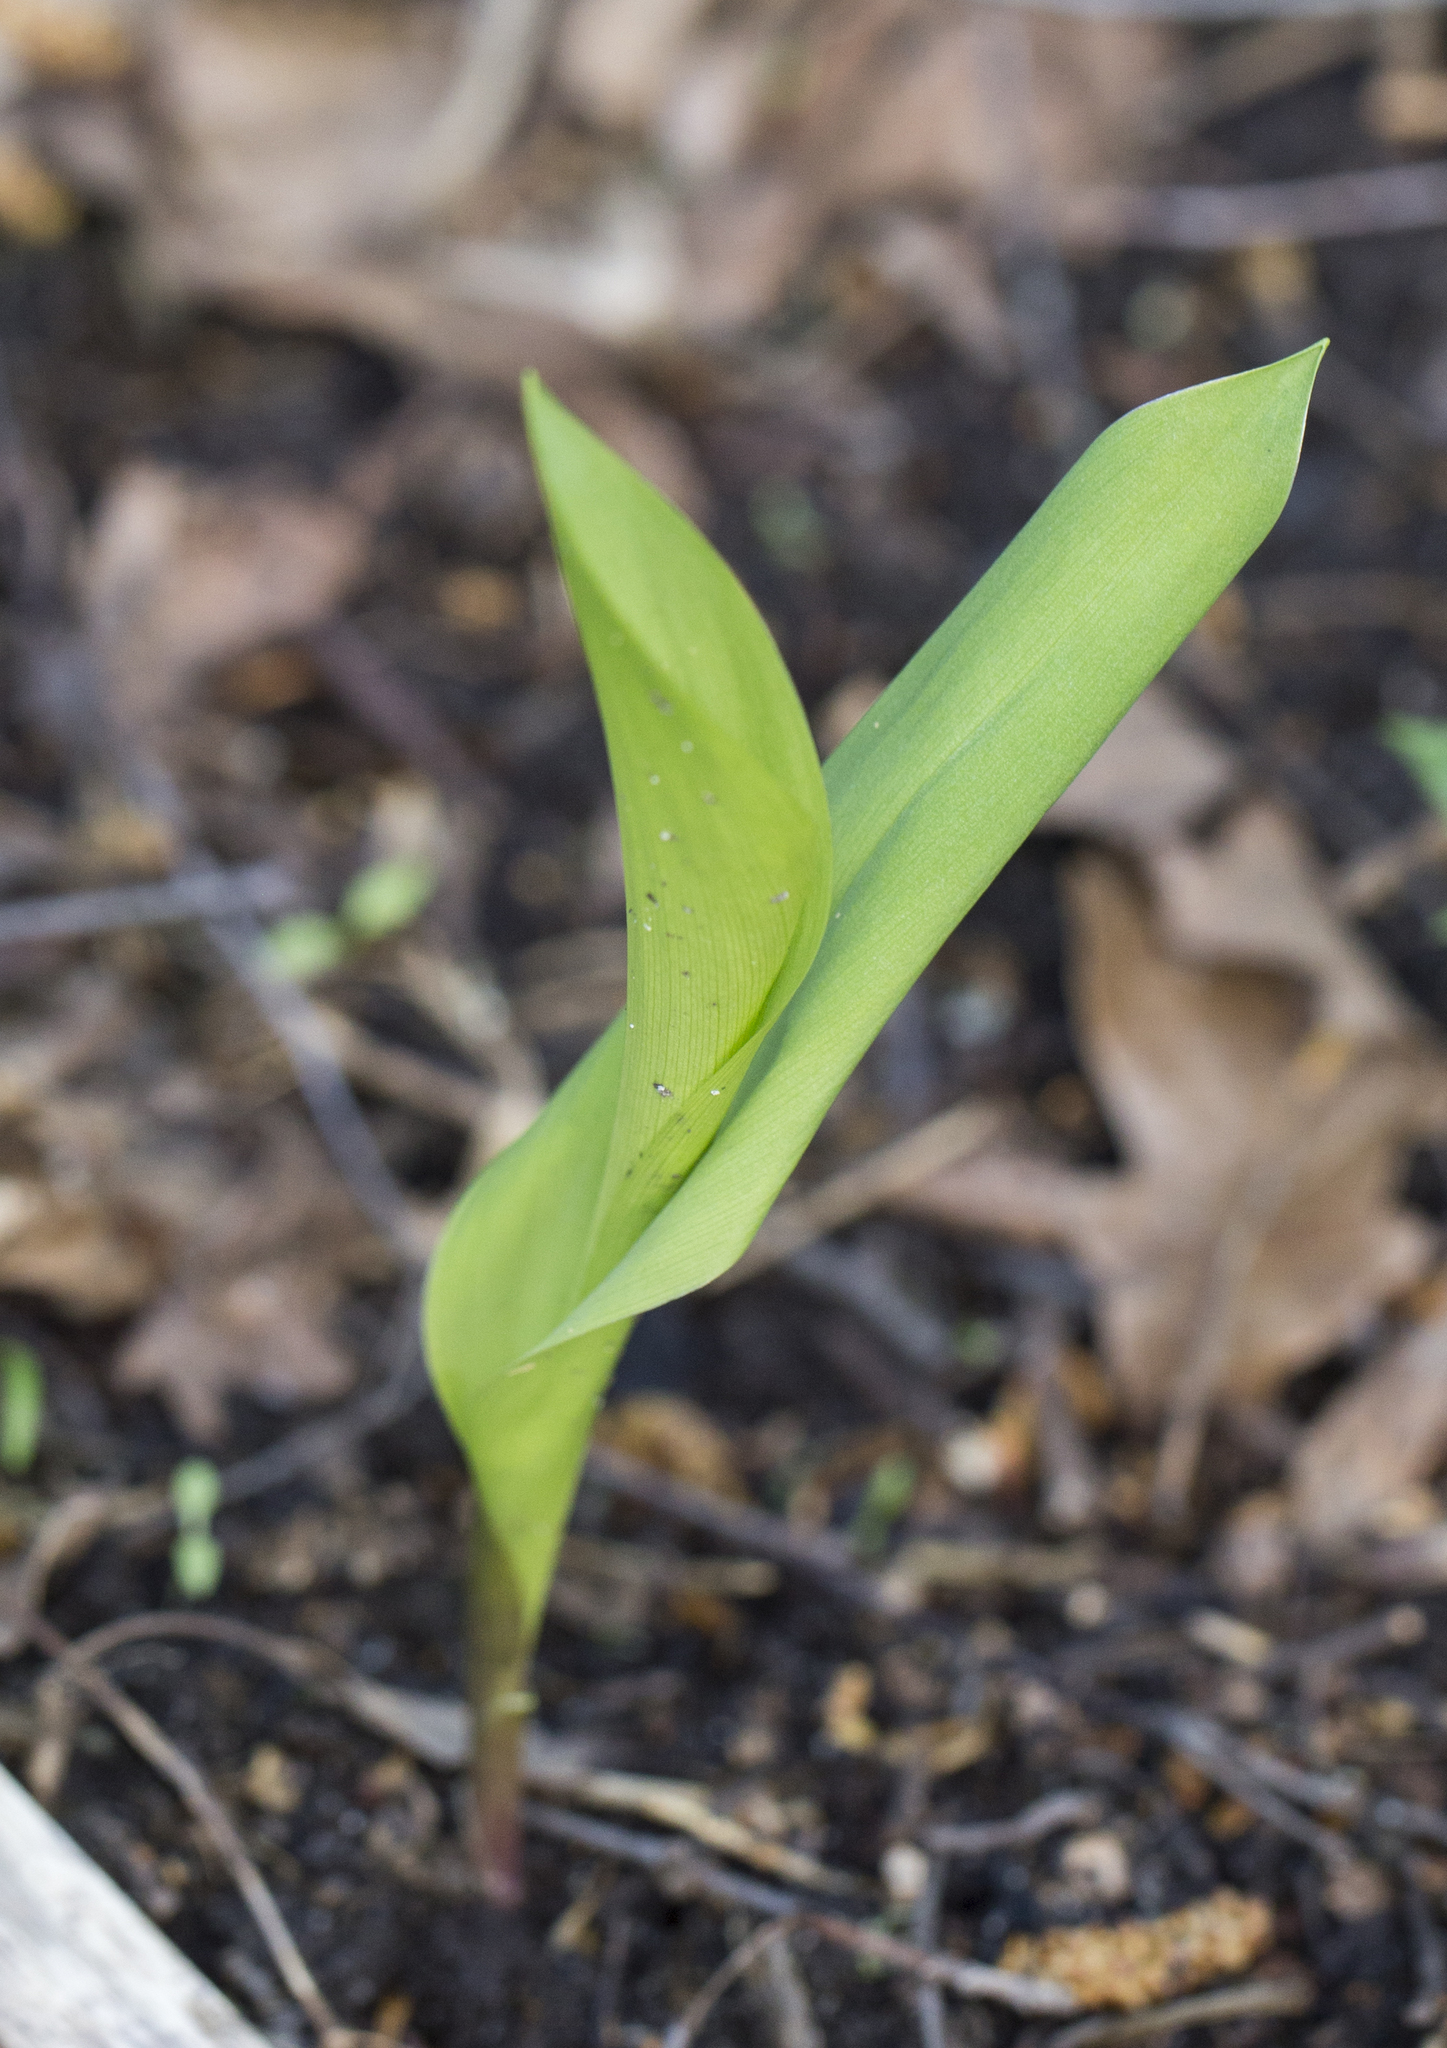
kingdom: Plantae
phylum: Tracheophyta
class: Liliopsida
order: Asparagales
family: Asparagaceae
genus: Convallaria
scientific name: Convallaria majalis
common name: Lily-of-the-valley
